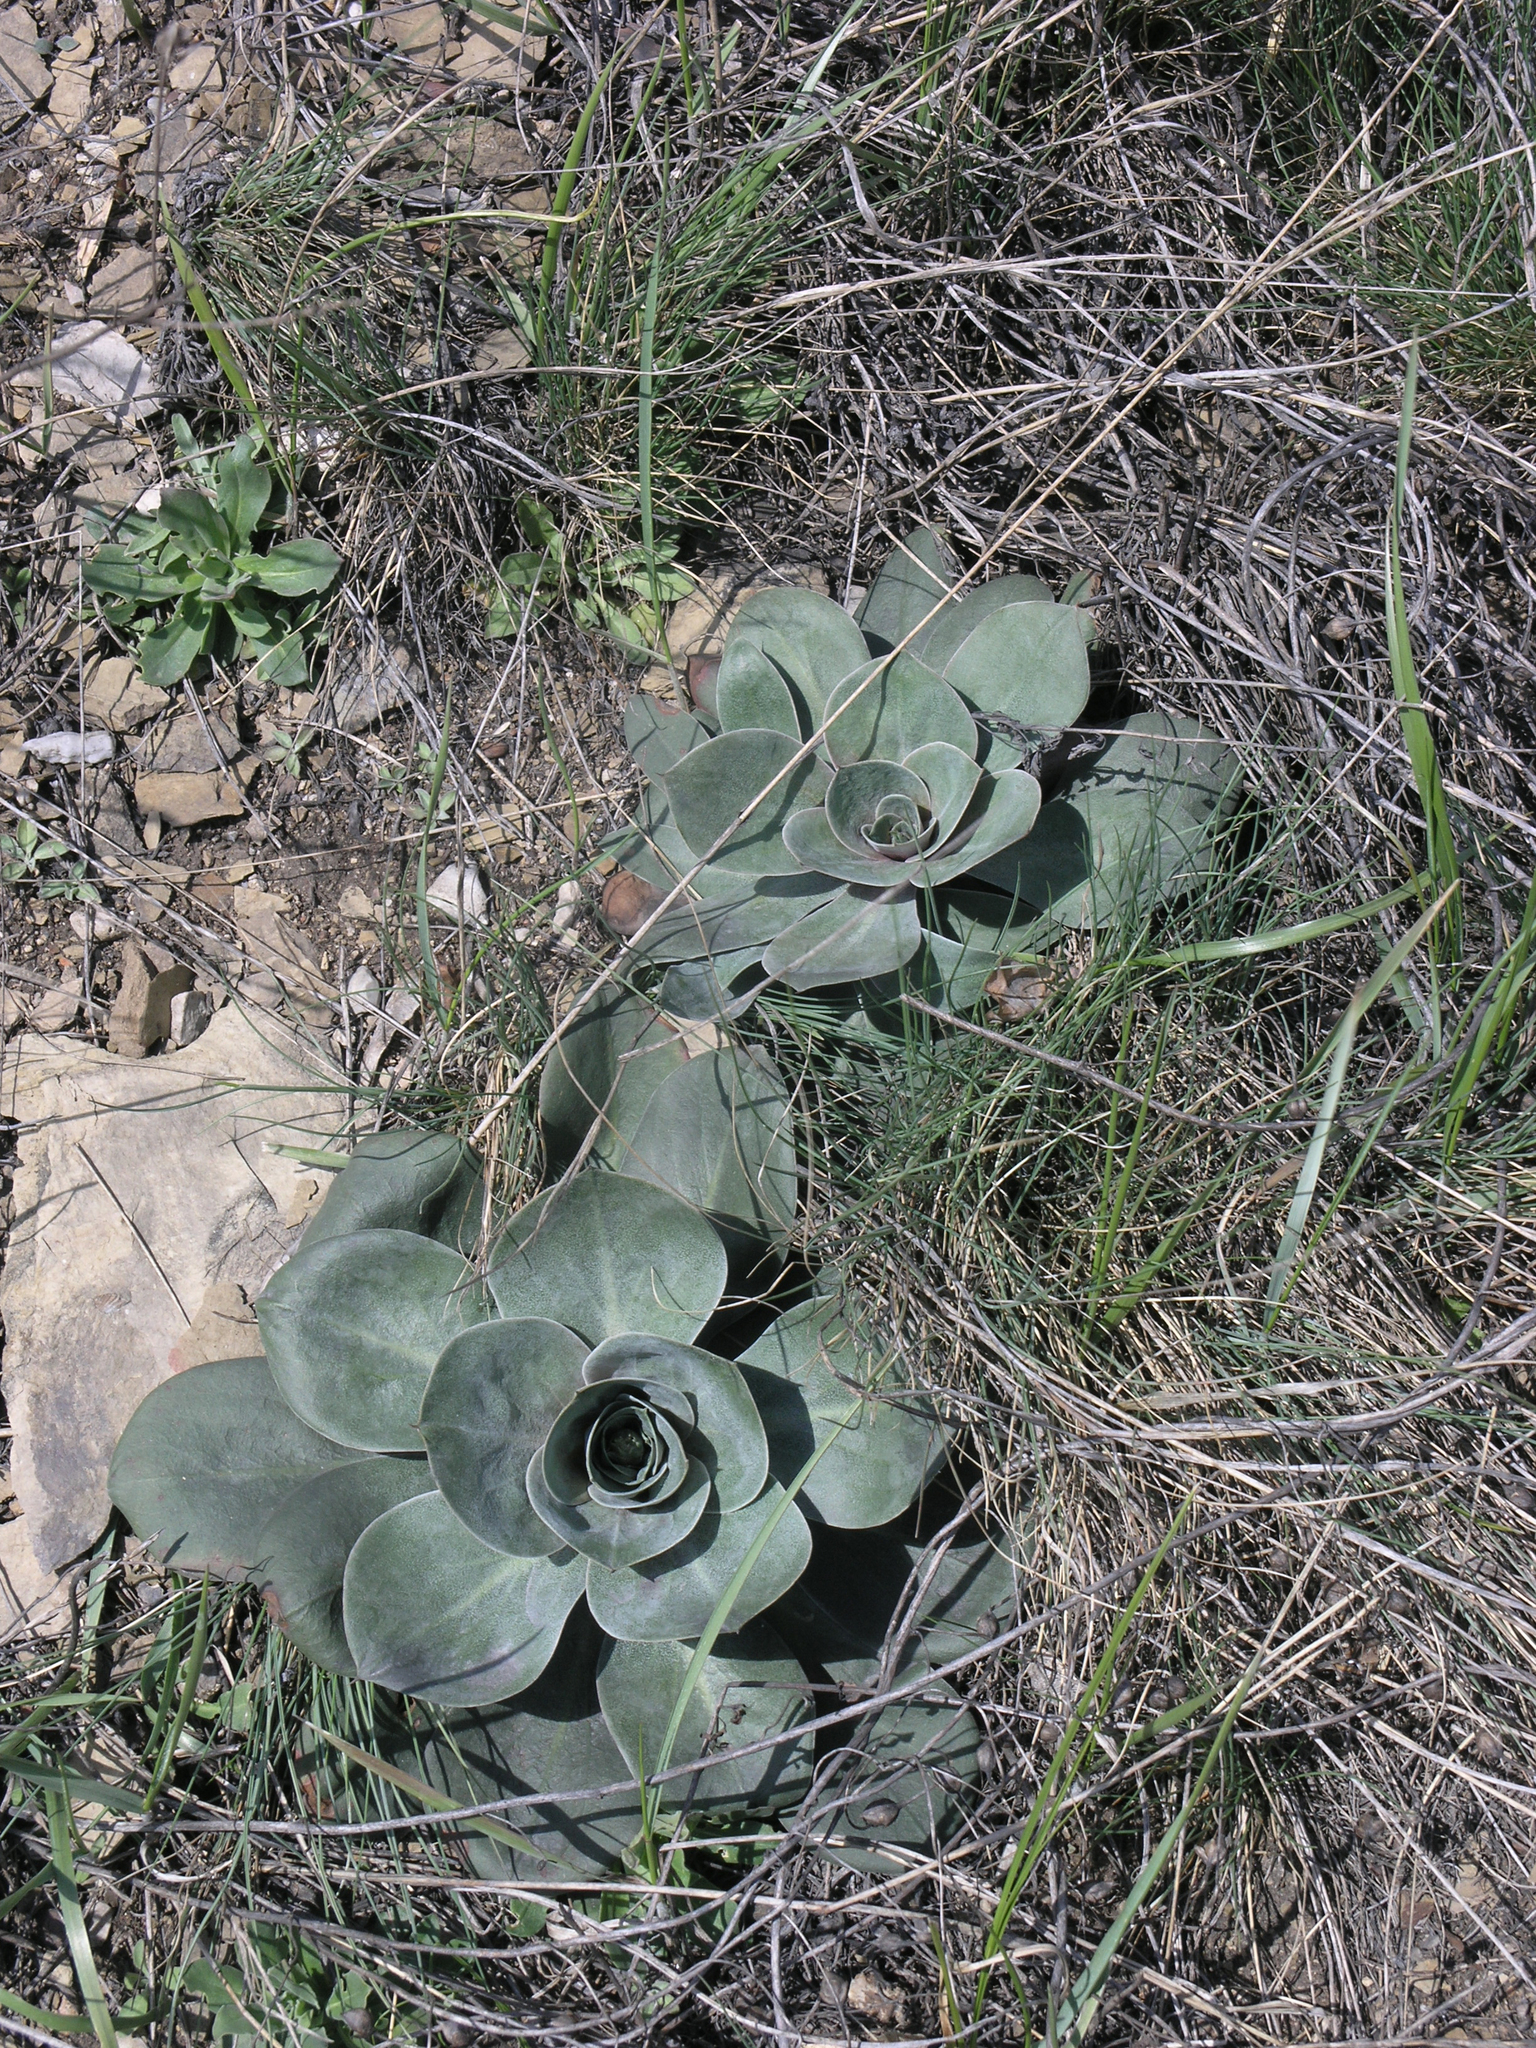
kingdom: Plantae
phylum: Tracheophyta
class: Magnoliopsida
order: Caryophyllales
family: Plumbaginaceae
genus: Goniolimon
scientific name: Goniolimon speciosum
